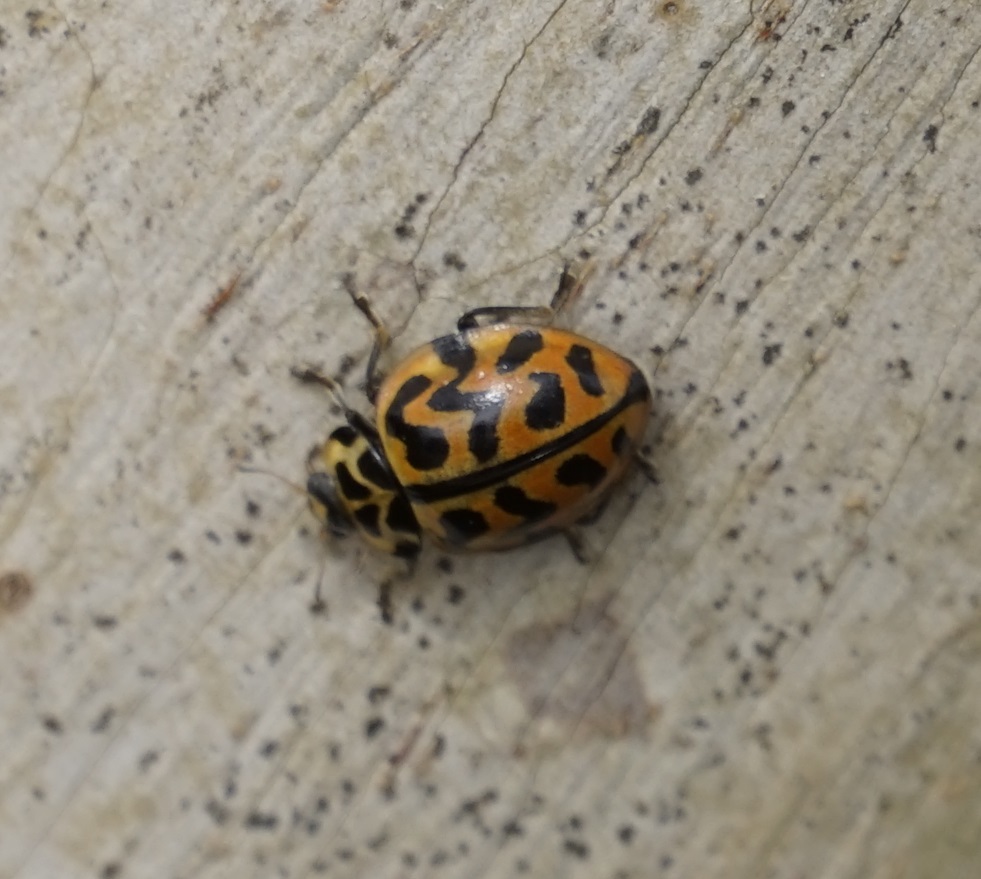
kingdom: Animalia
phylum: Arthropoda
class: Insecta
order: Coleoptera
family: Coccinellidae
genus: Cleobora
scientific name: Cleobora
